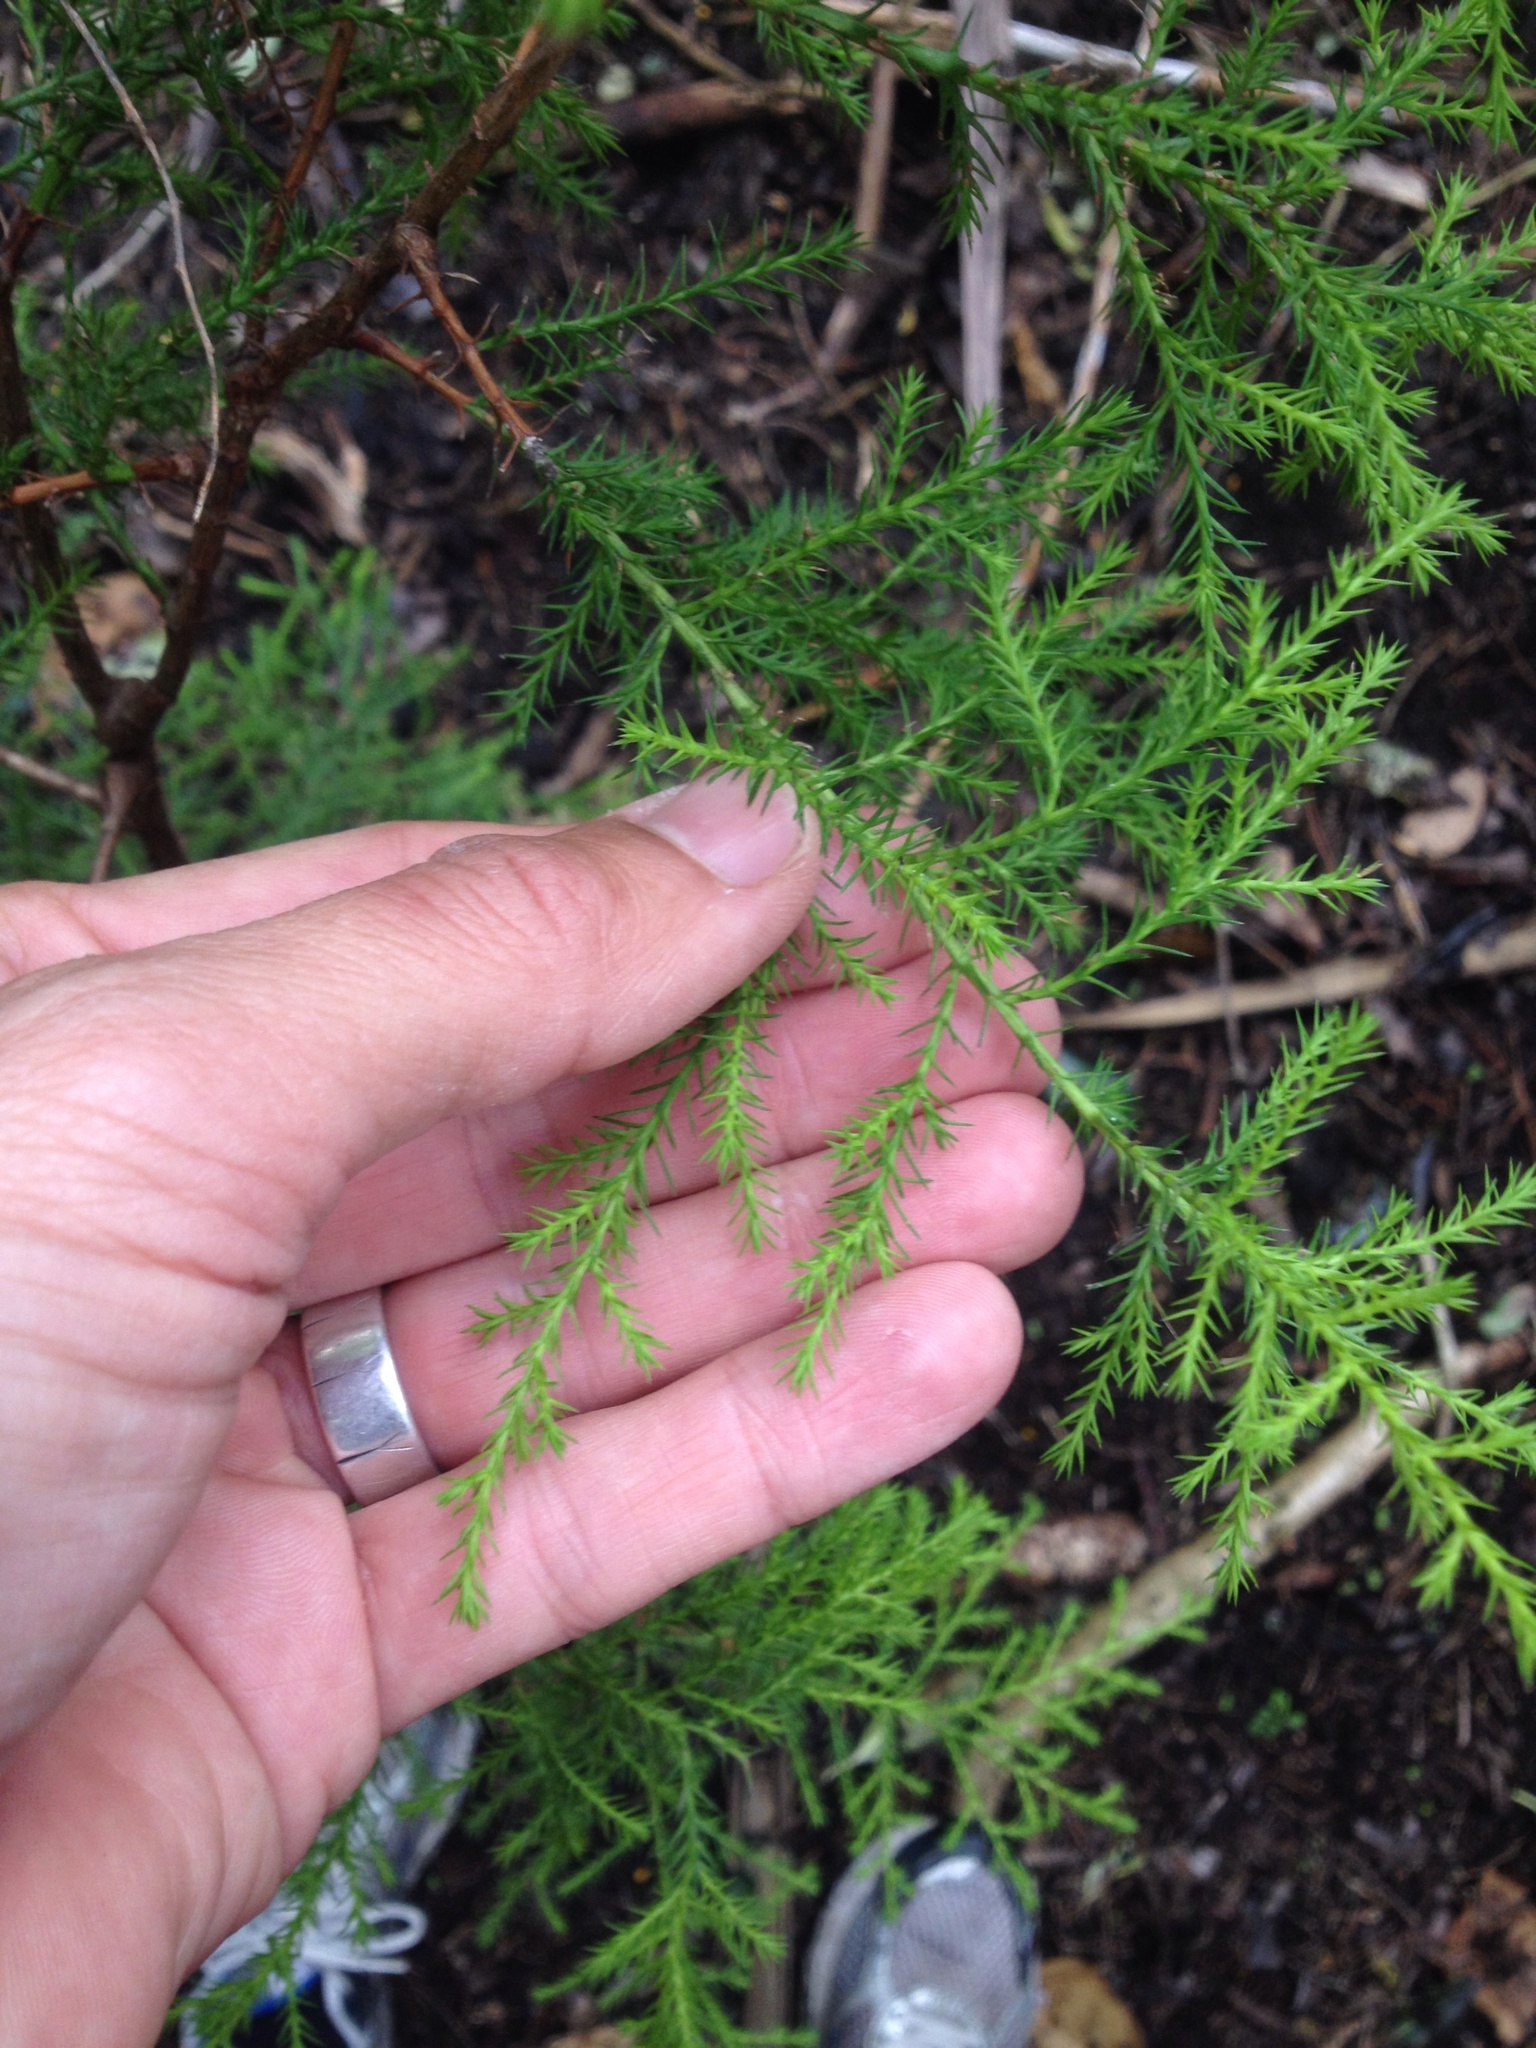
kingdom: Plantae
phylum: Tracheophyta
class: Pinopsida
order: Pinales
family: Cupressaceae
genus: Cupressus
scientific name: Cupressus macrocarpa
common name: Monterey cypress
